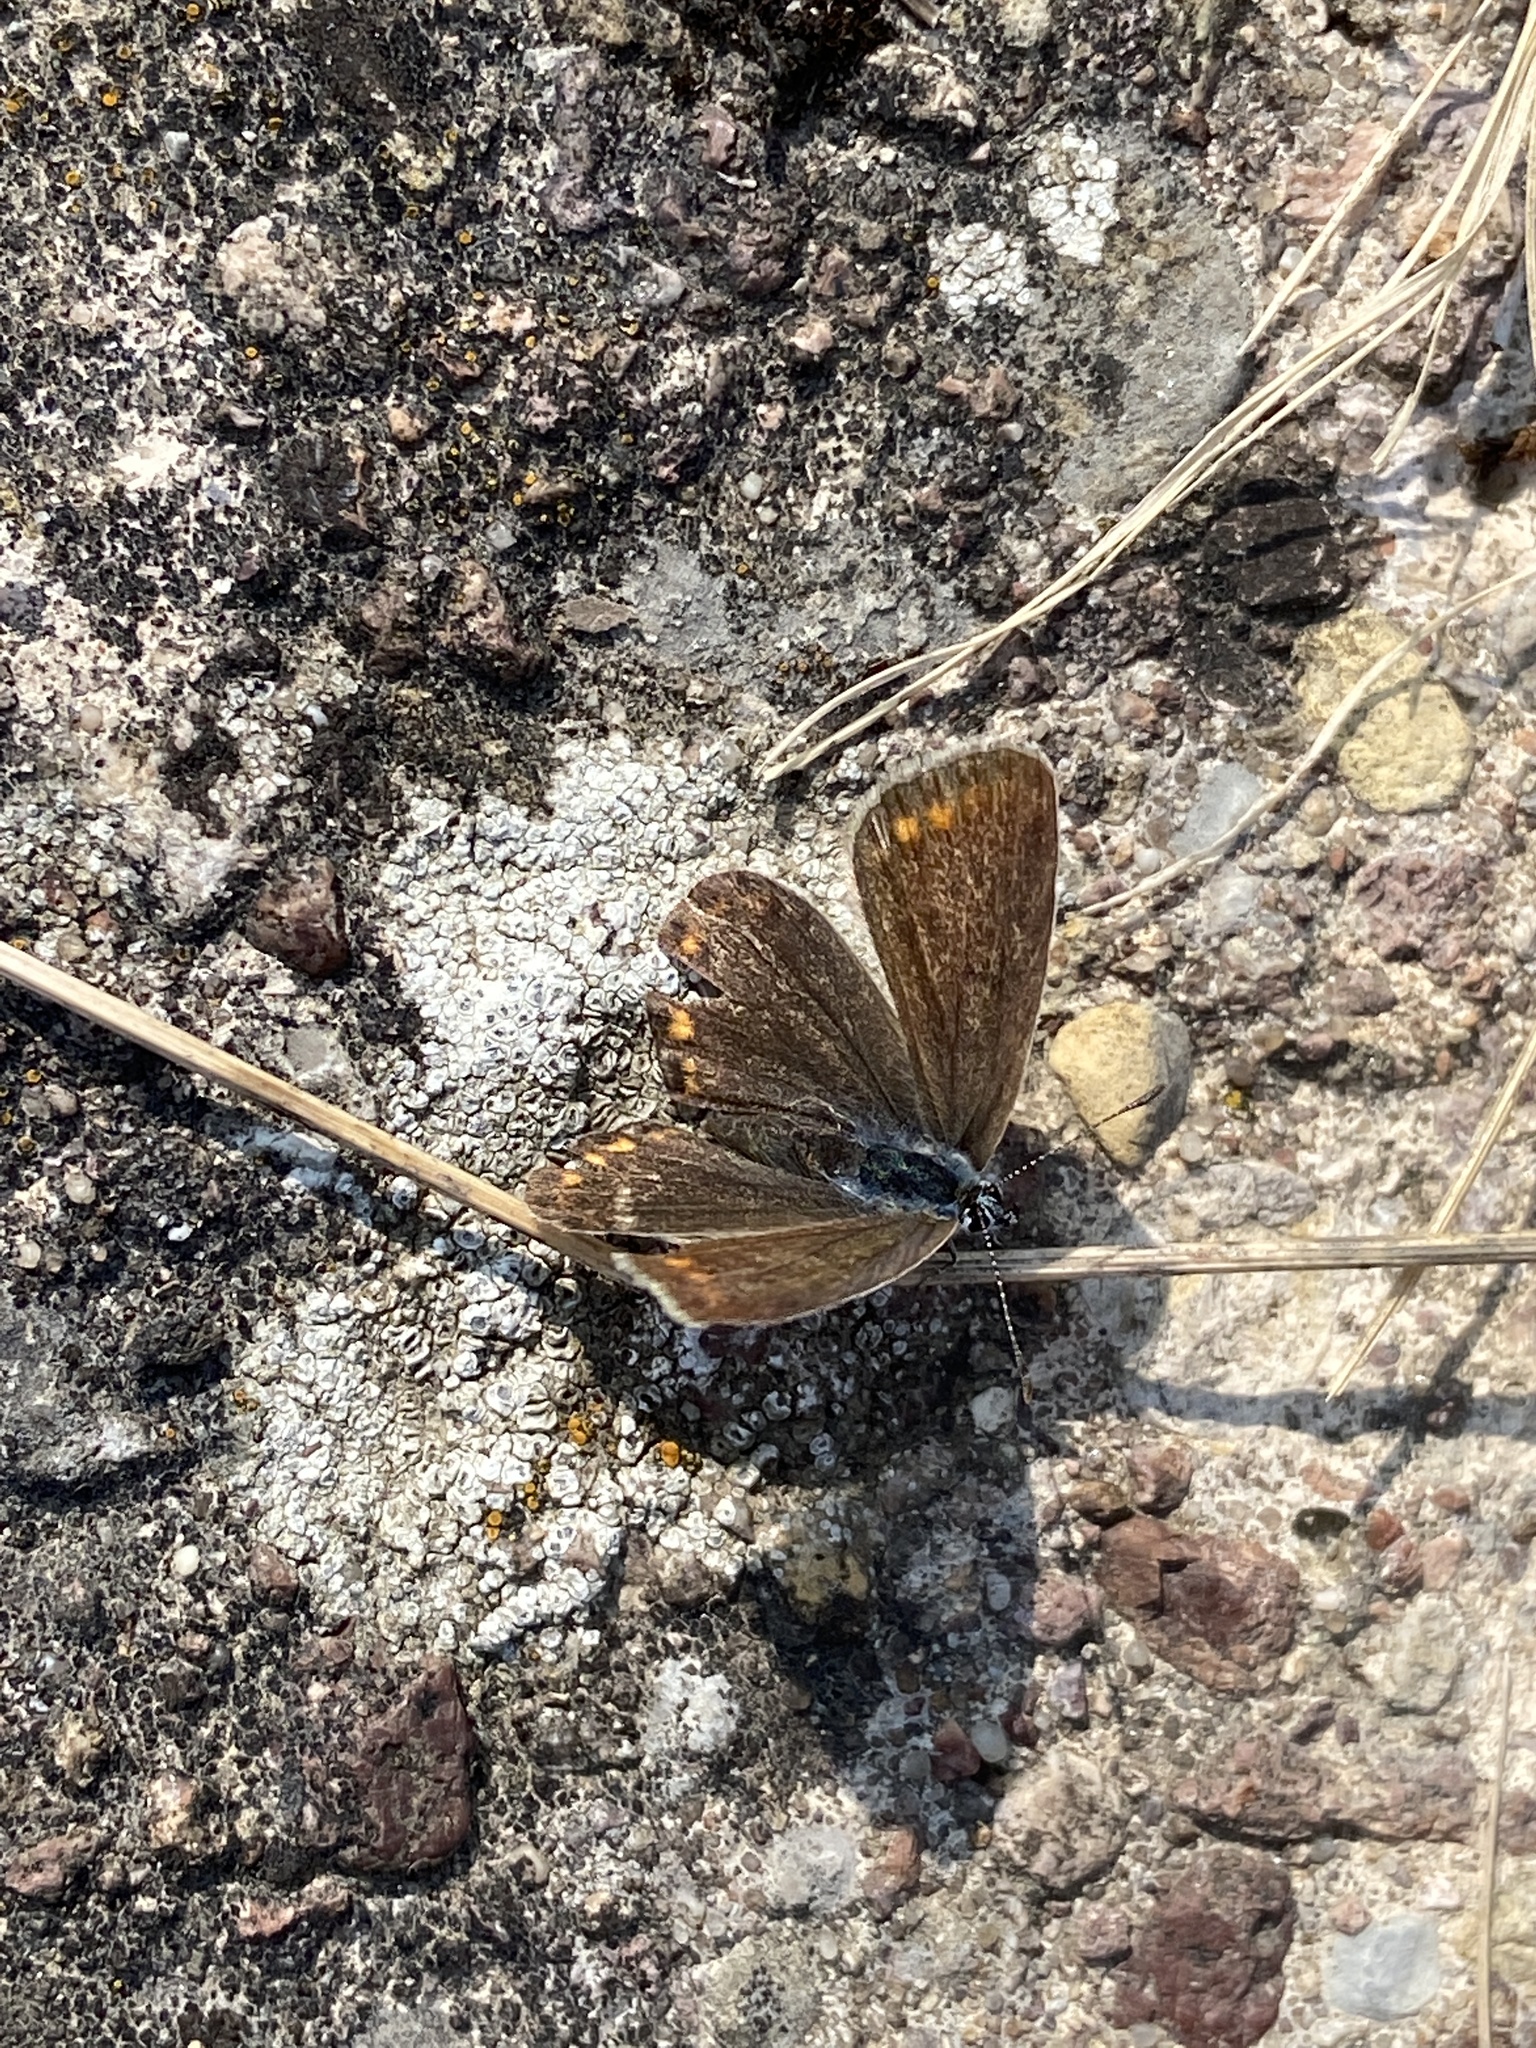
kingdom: Animalia
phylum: Arthropoda
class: Insecta
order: Lepidoptera
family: Lycaenidae
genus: Polyommatus
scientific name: Polyommatus icarus
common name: Common blue
